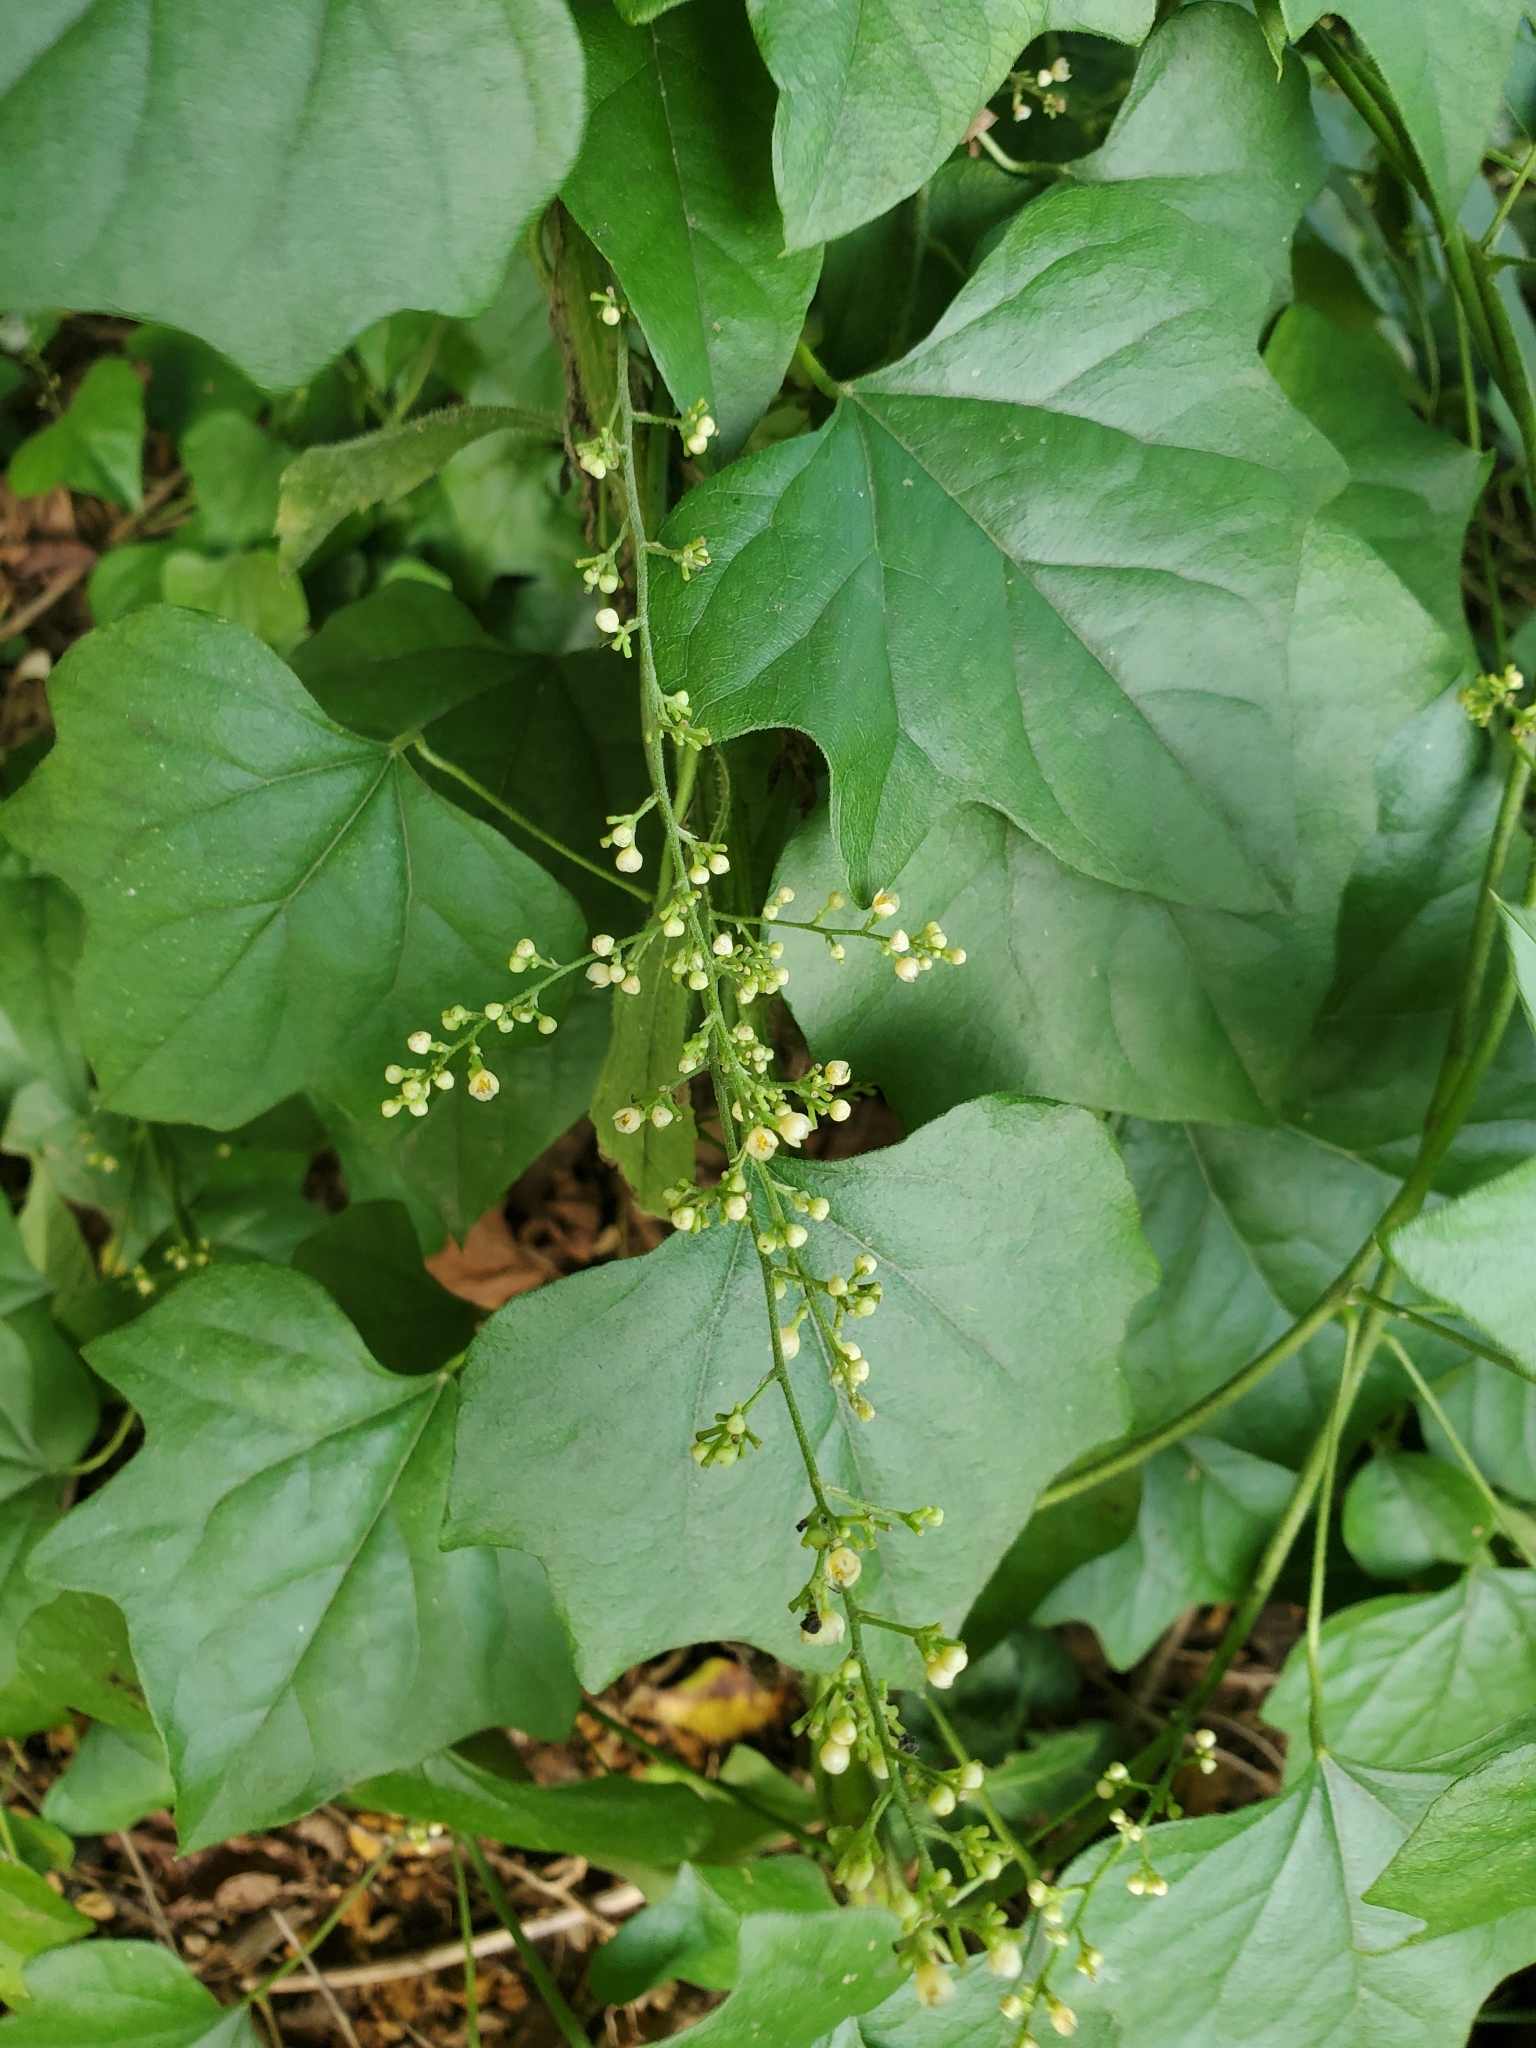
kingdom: Plantae
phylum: Tracheophyta
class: Magnoliopsida
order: Ranunculales
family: Menispermaceae
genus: Cocculus
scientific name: Cocculus carolinus
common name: Carolina moonseed
